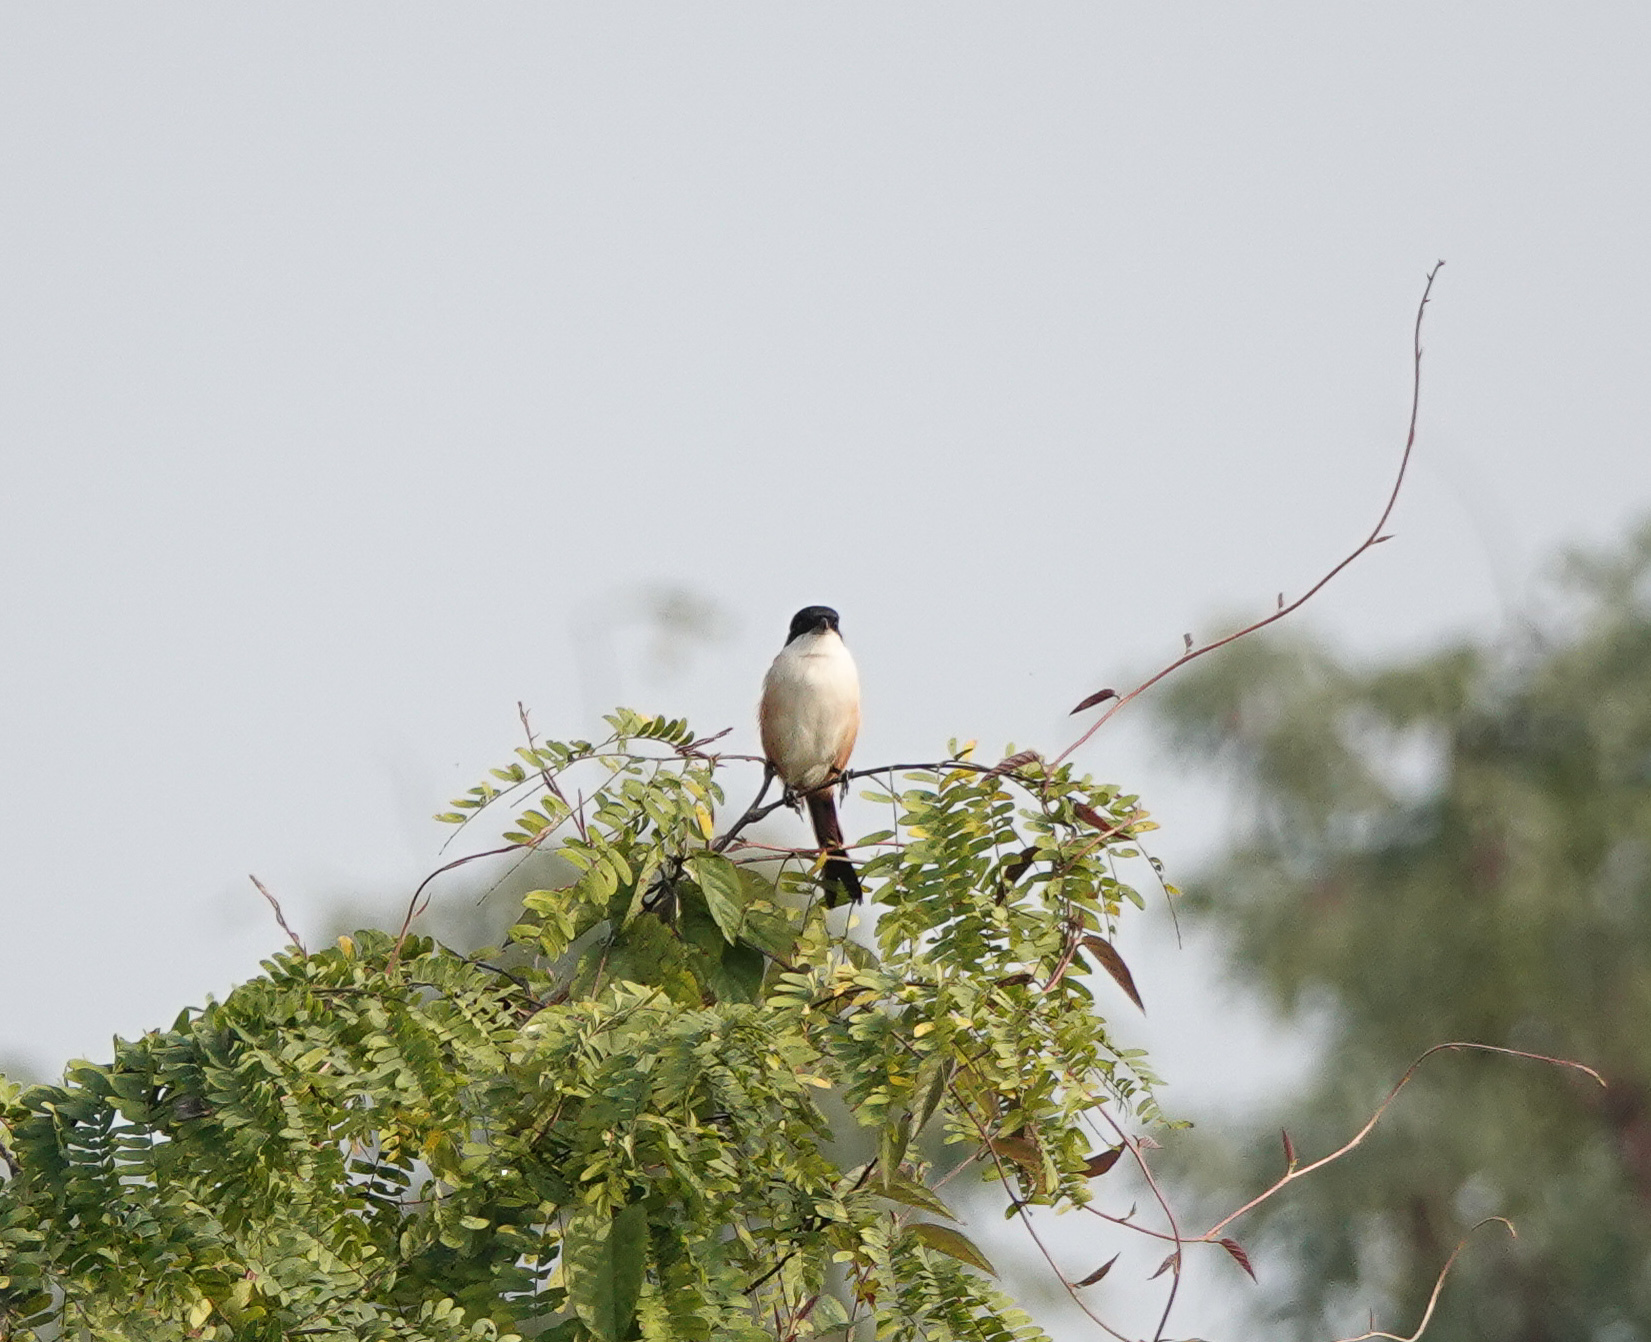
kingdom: Animalia
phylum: Chordata
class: Aves
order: Passeriformes
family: Laniidae
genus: Lanius
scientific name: Lanius schach
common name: Long-tailed shrike
